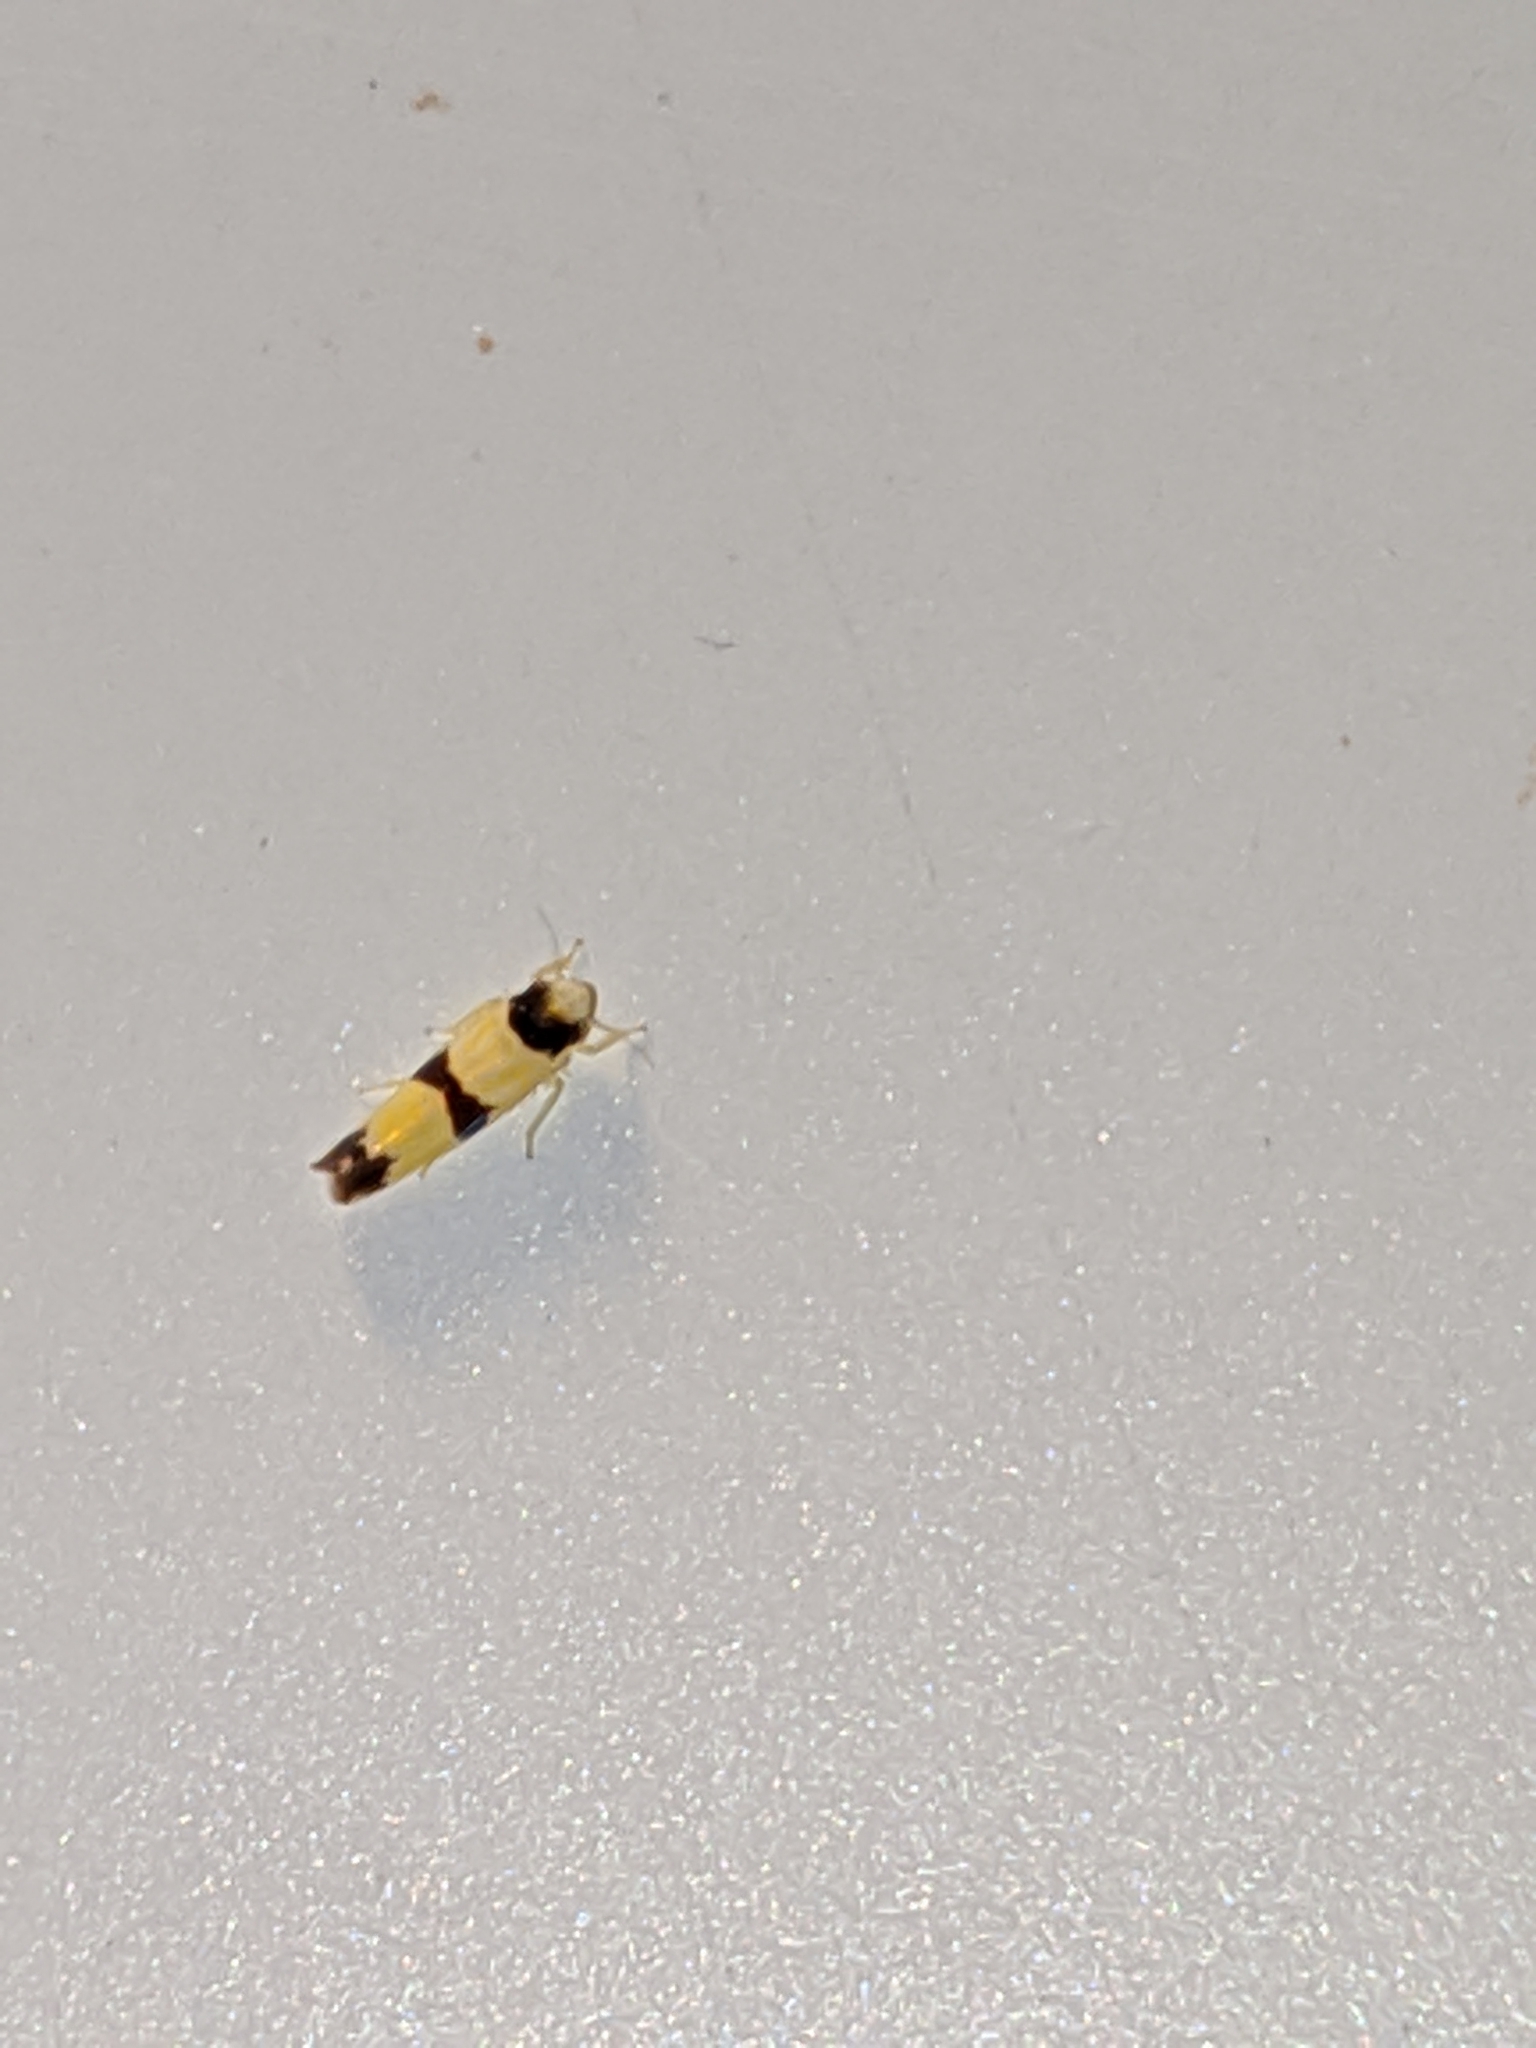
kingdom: Animalia
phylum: Arthropoda
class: Insecta
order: Hemiptera
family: Cicadellidae
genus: Erythroneura
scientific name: Erythroneura tricincta
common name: The threebanded grape leafhopper
